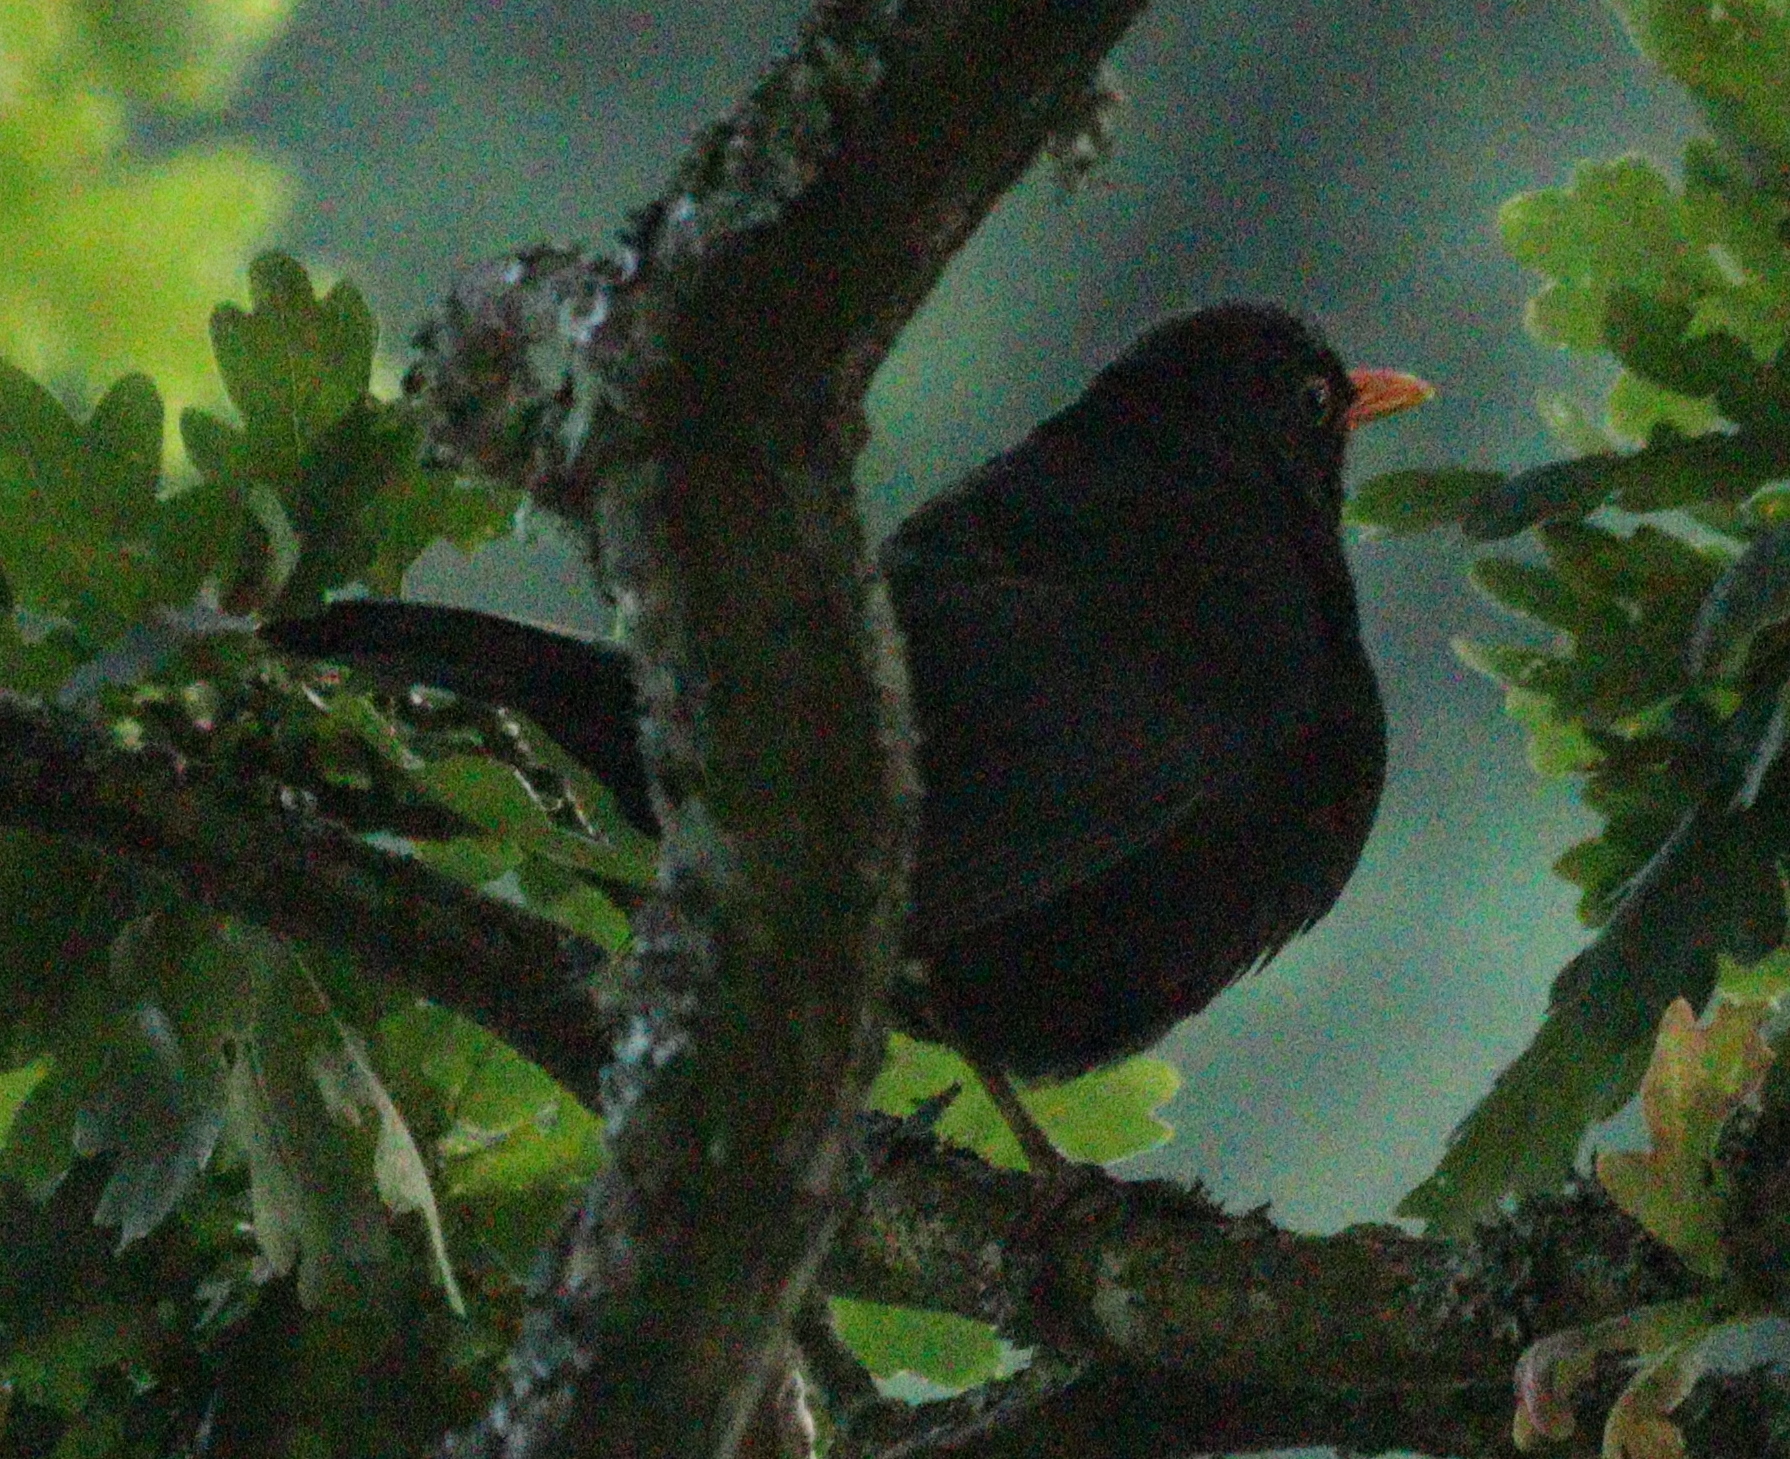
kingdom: Animalia
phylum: Chordata
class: Aves
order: Passeriformes
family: Turdidae
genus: Turdus
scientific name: Turdus merula
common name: Common blackbird
